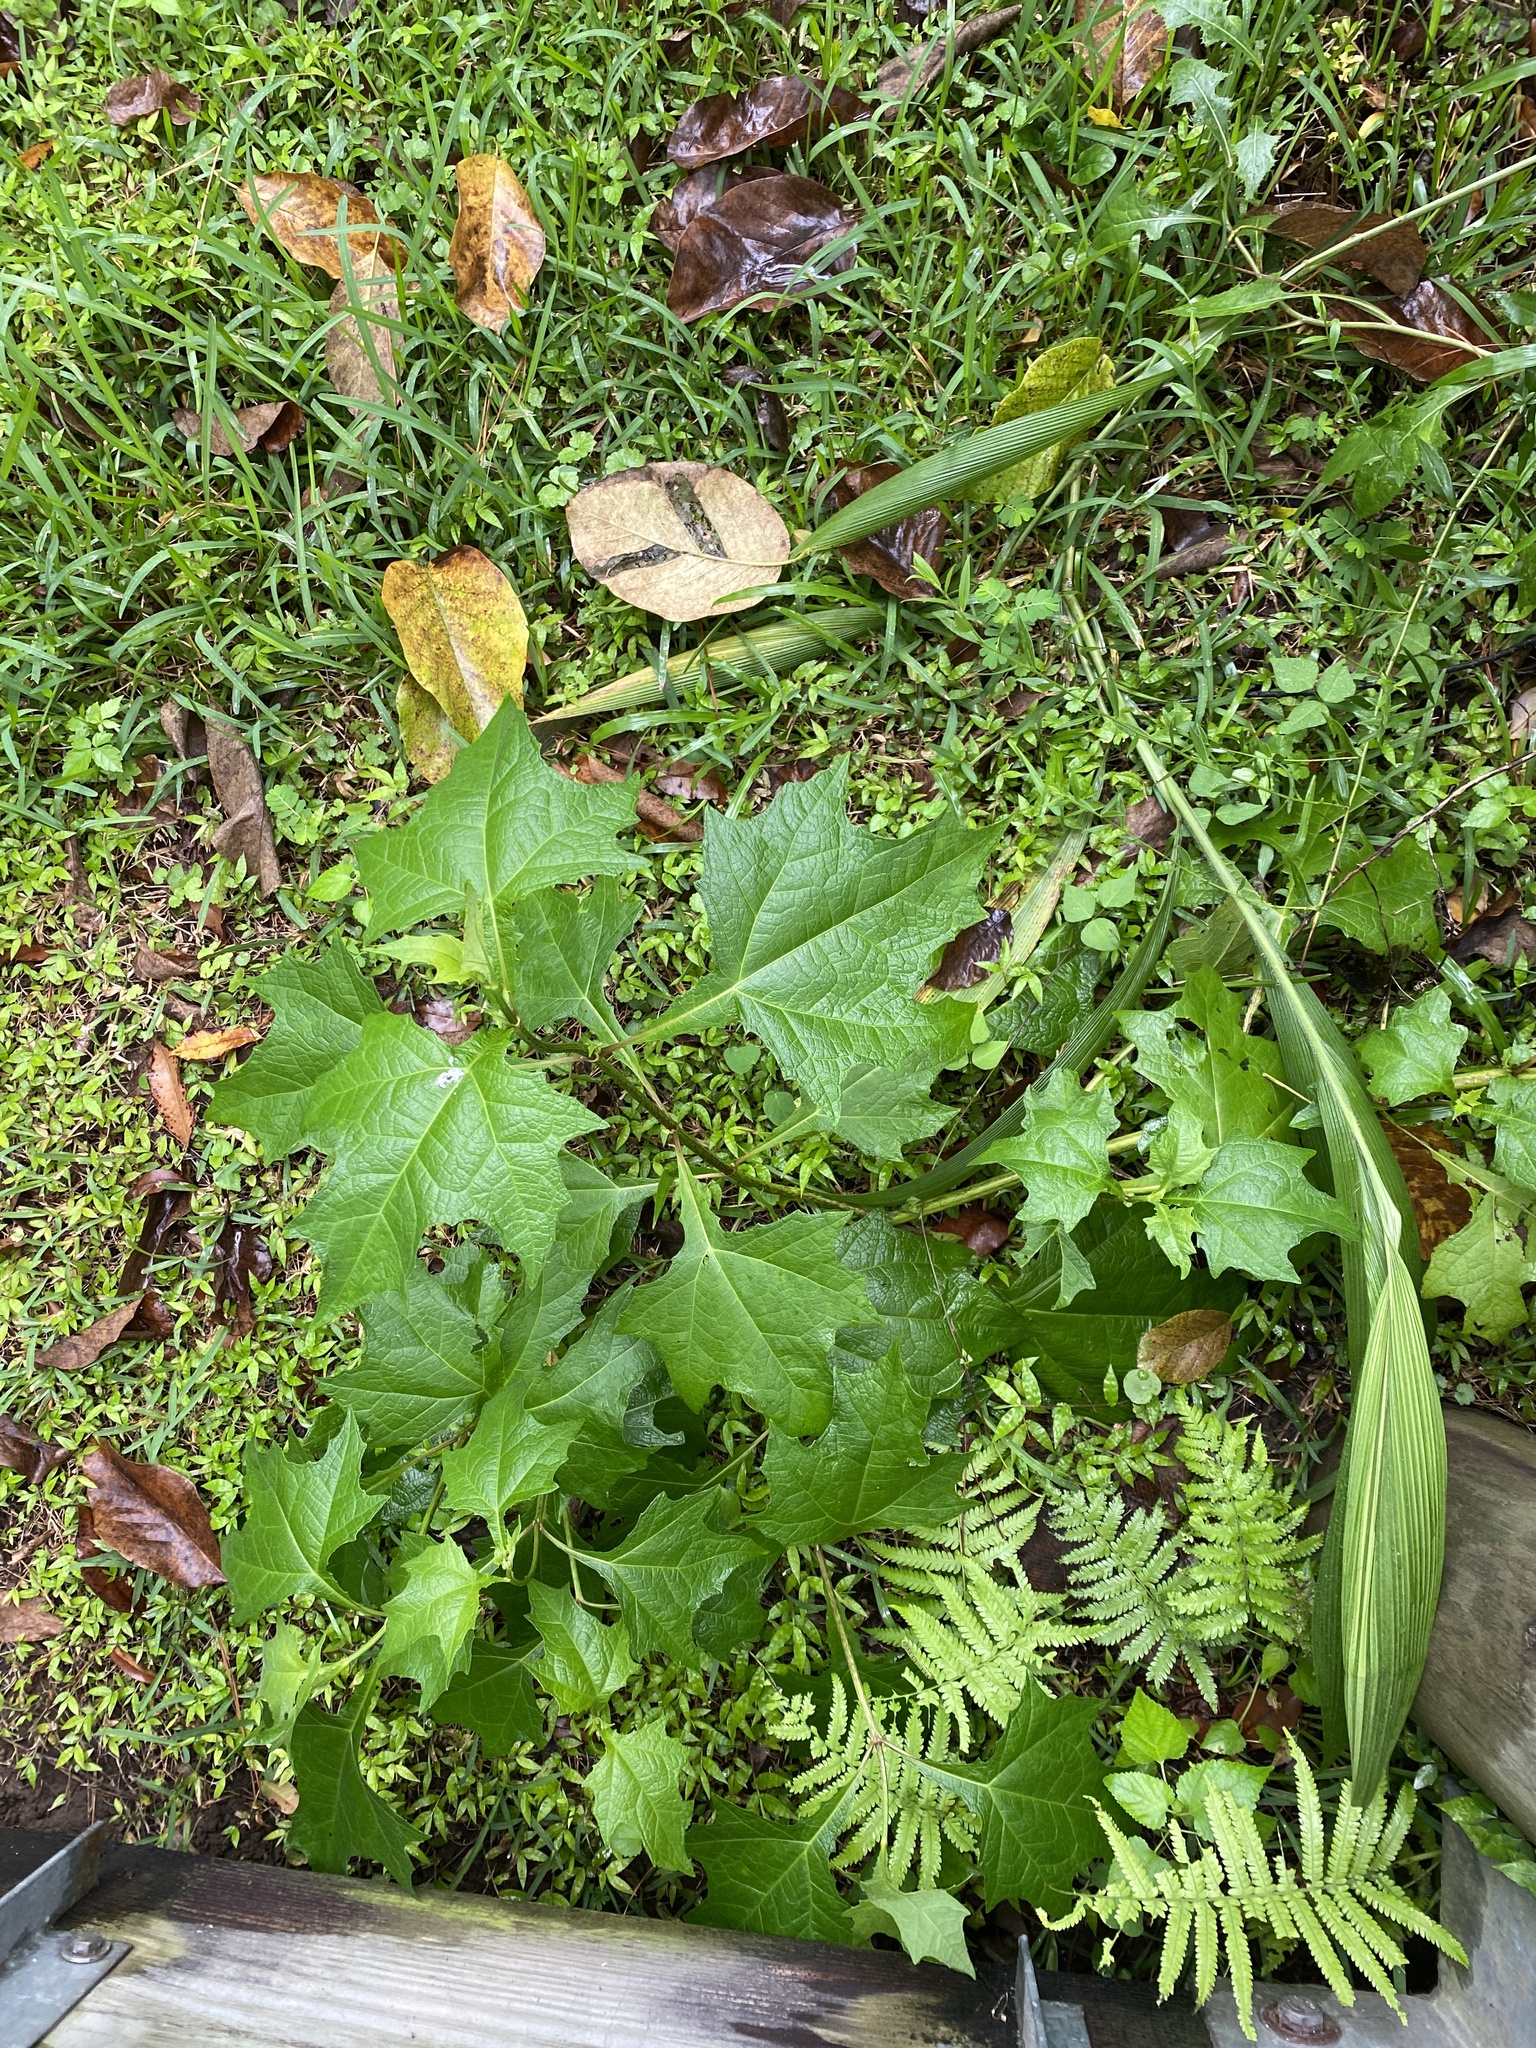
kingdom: Plantae
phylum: Tracheophyta
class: Magnoliopsida
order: Asterales
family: Asteraceae
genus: Smallanthus
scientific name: Smallanthus uvedalia
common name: Bear's-foot
